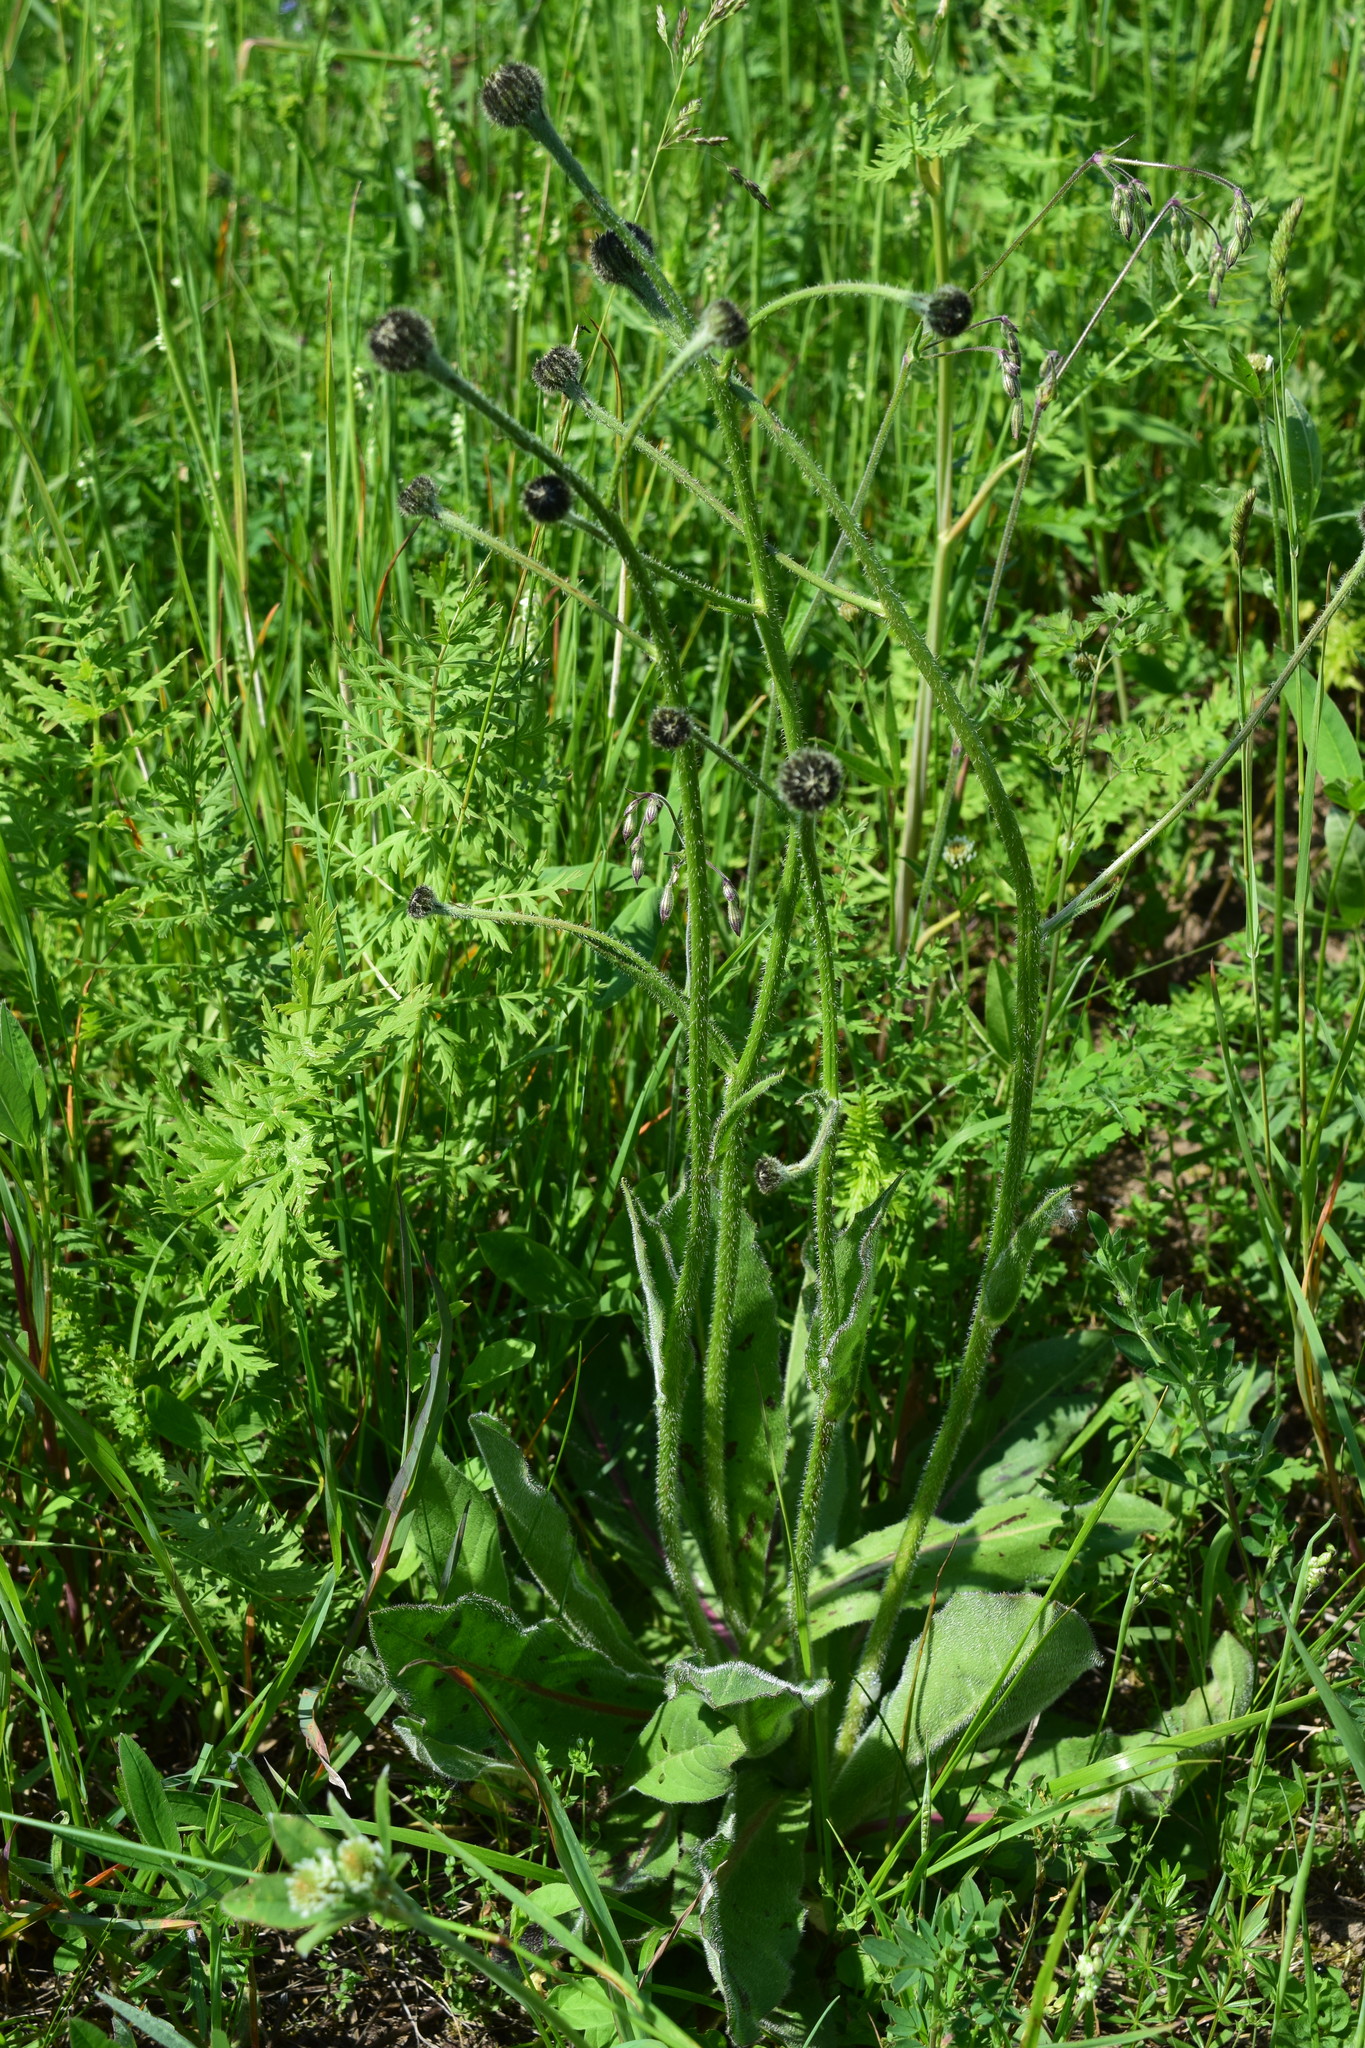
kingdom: Plantae
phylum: Tracheophyta
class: Magnoliopsida
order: Asterales
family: Asteraceae
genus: Trommsdorffia
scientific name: Trommsdorffia maculata
